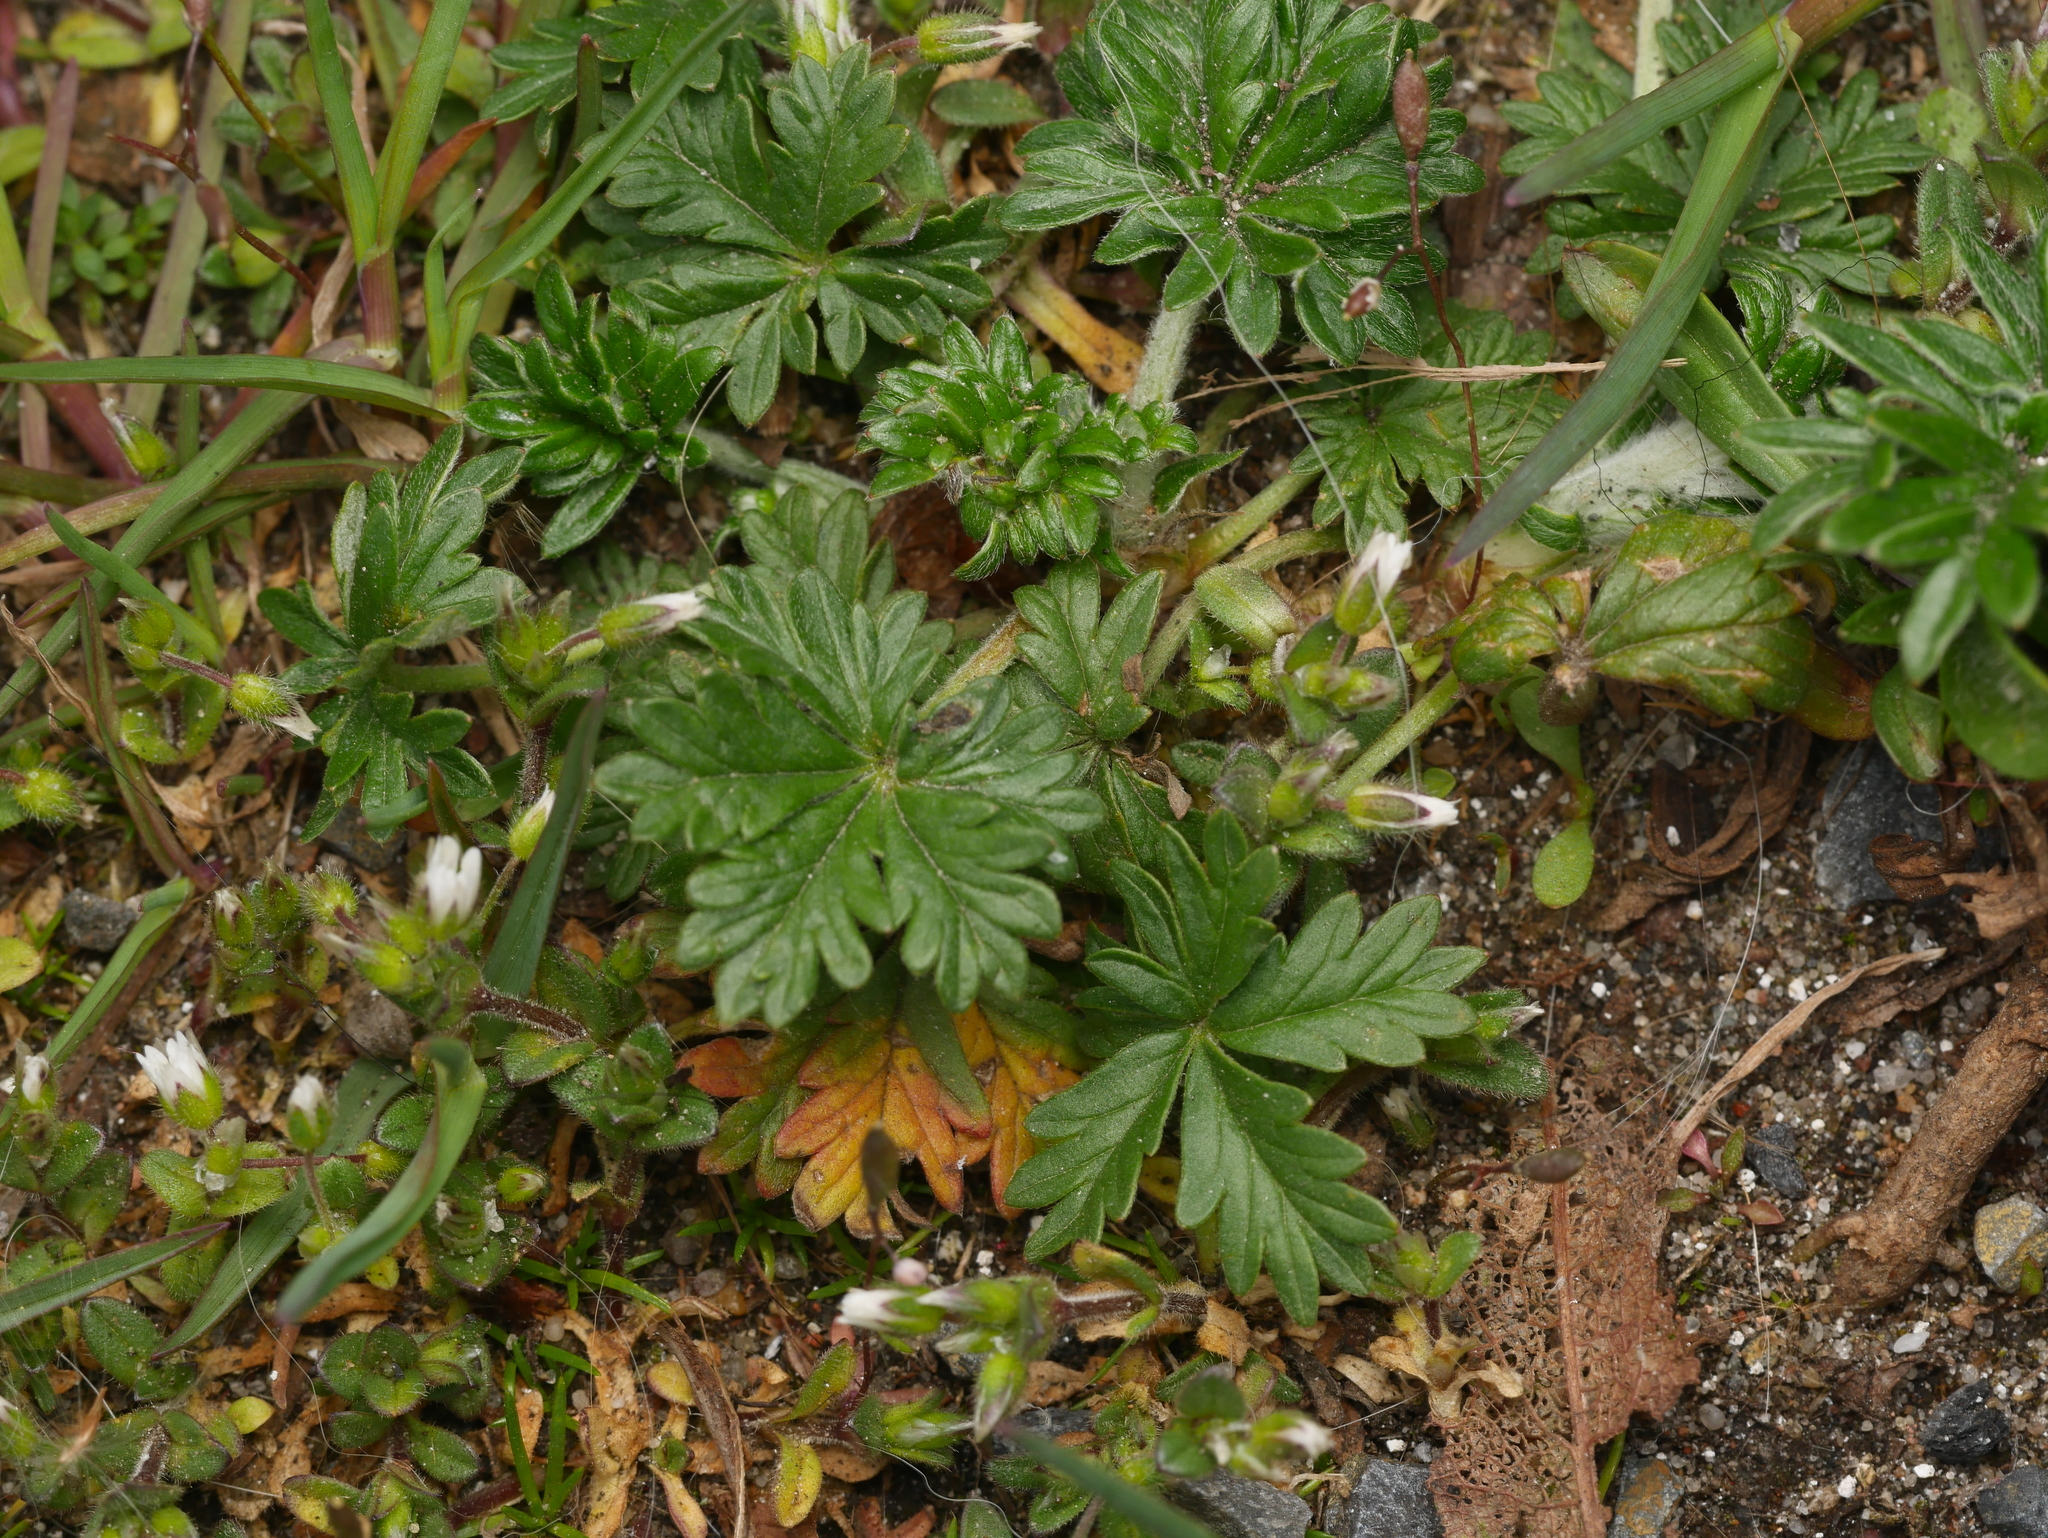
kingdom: Plantae
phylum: Tracheophyta
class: Magnoliopsida
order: Rosales
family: Rosaceae
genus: Potentilla
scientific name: Potentilla argentea
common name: Hoary cinquefoil
